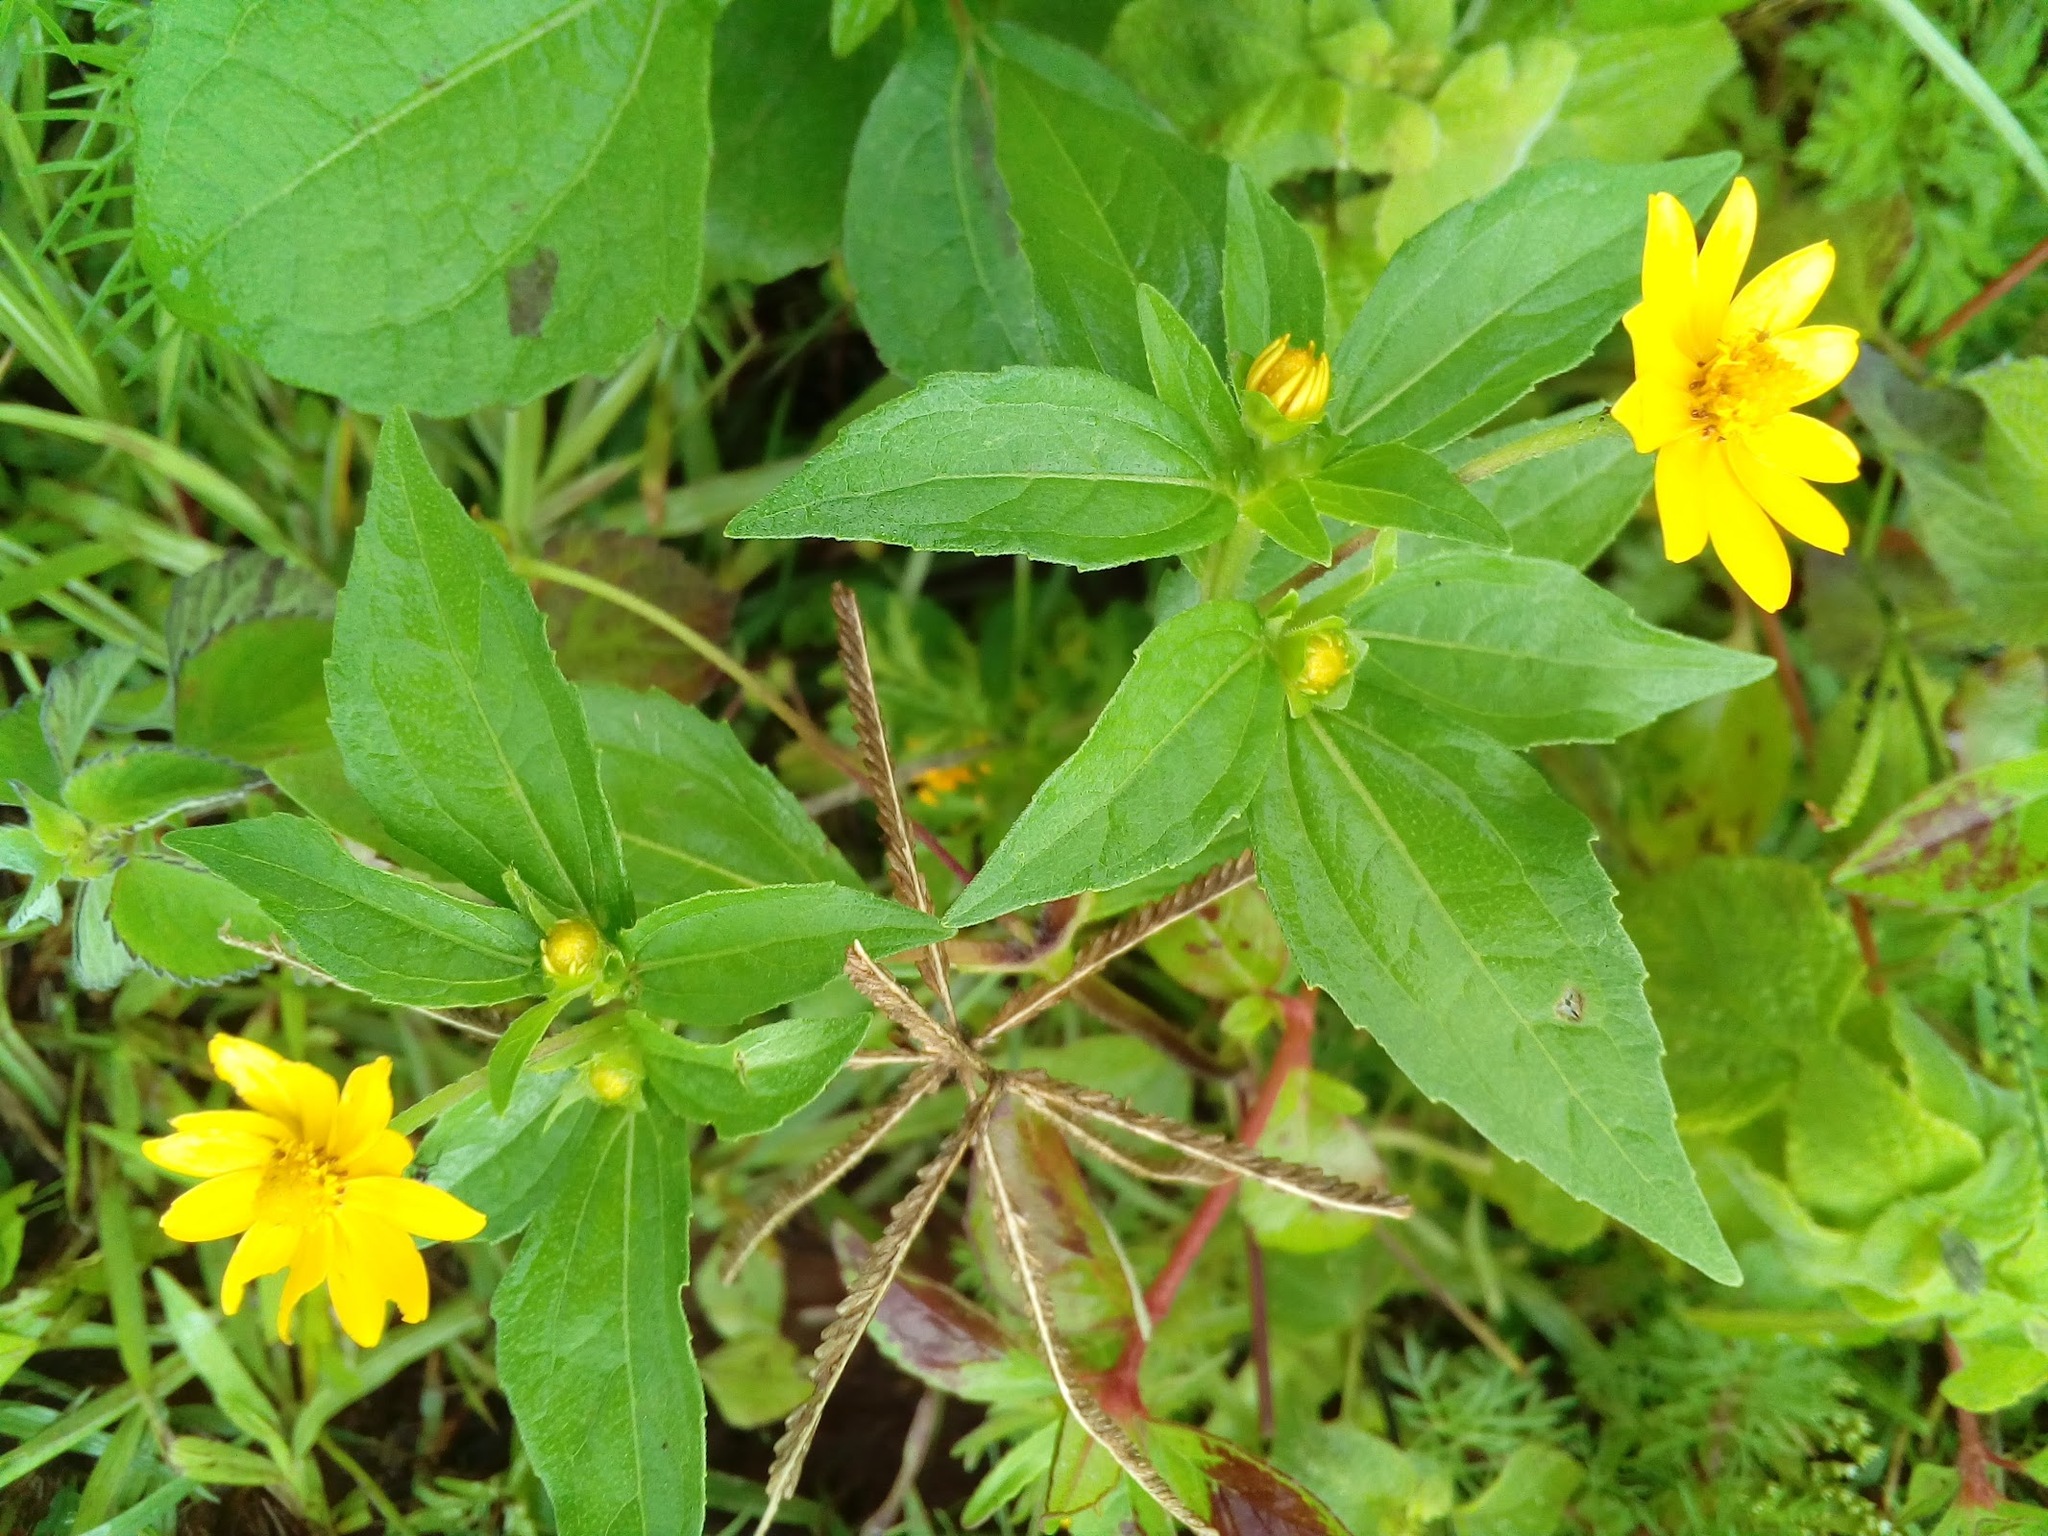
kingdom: Plantae
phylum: Tracheophyta
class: Magnoliopsida
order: Asterales
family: Asteraceae
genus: Melampodium
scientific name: Melampodium divaricatum
